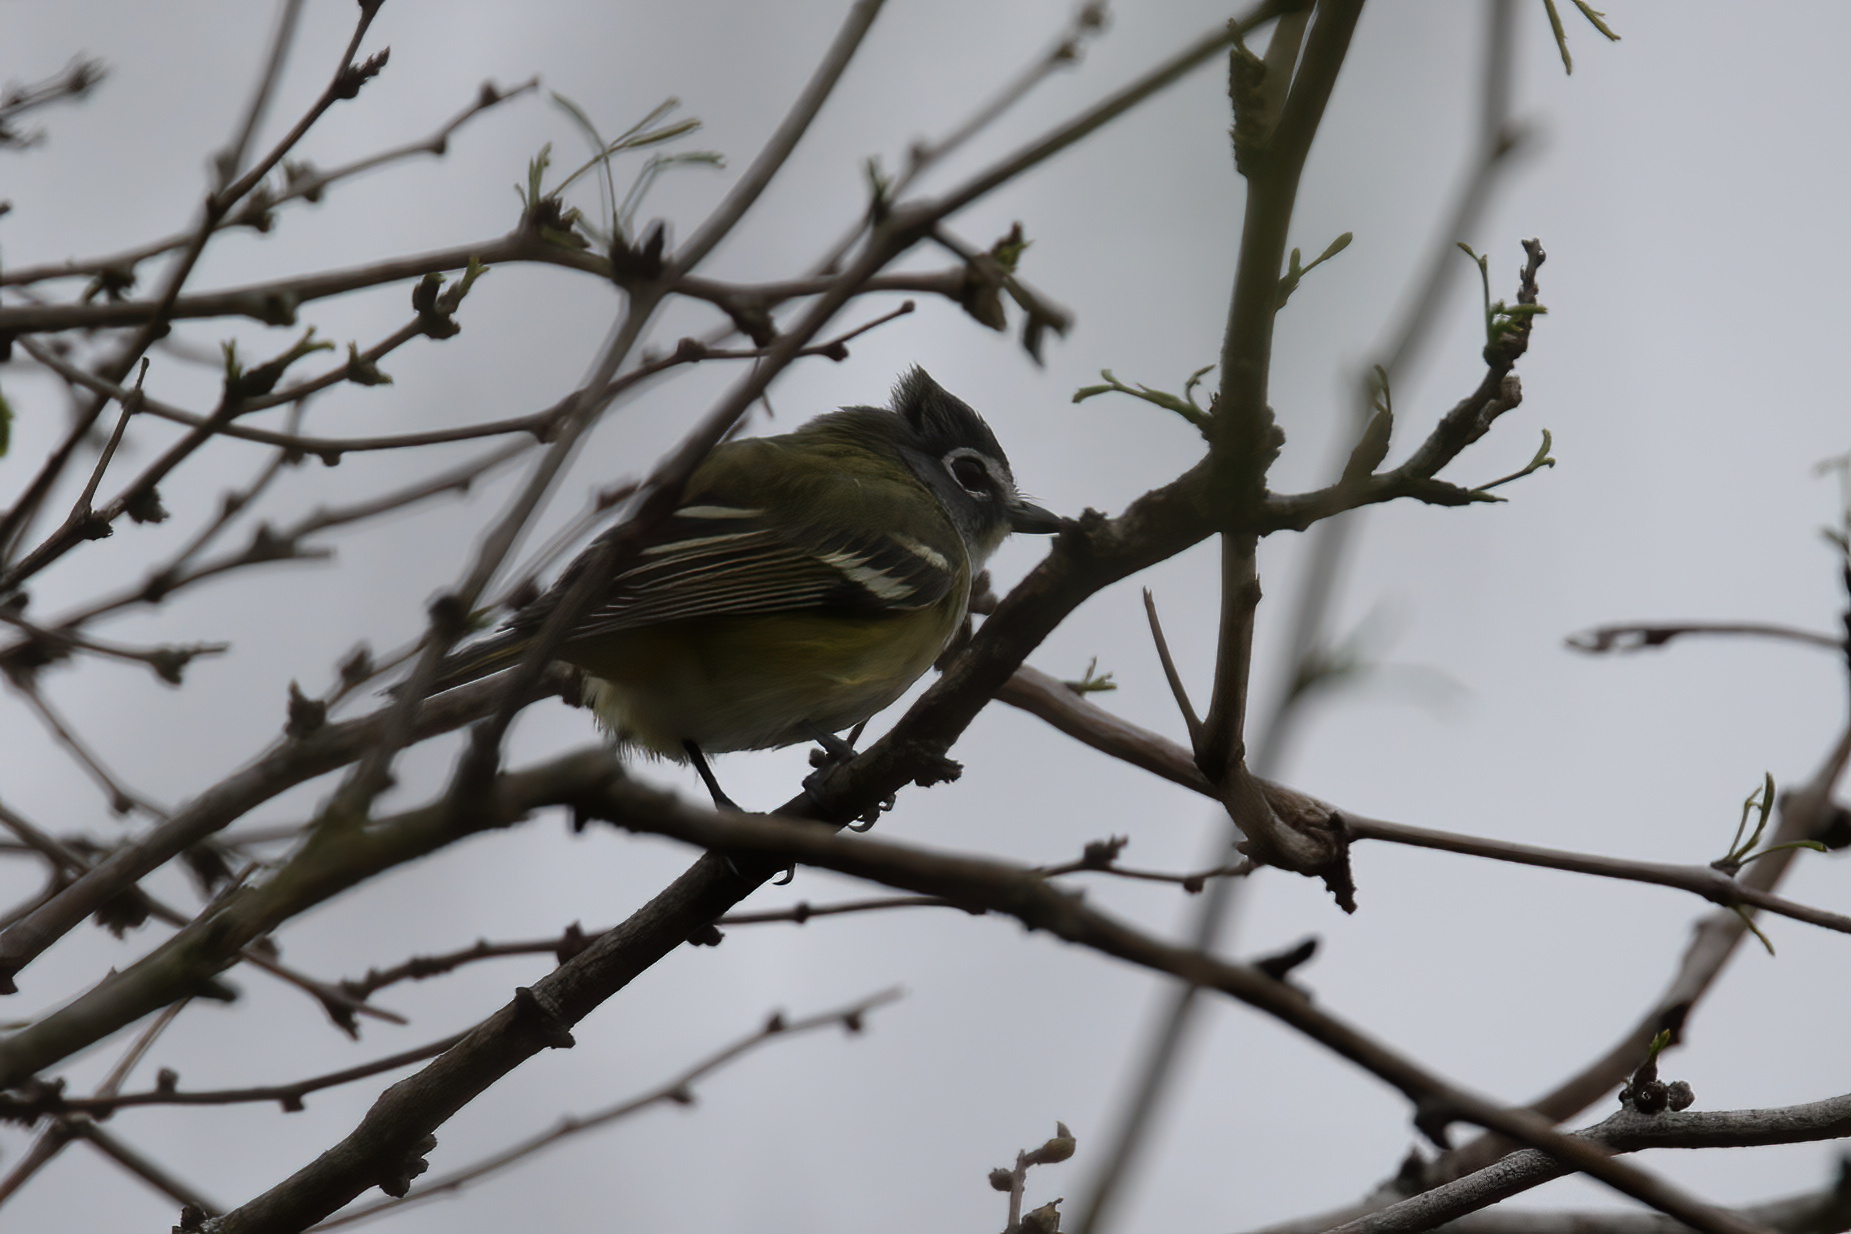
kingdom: Animalia
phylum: Chordata
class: Aves
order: Passeriformes
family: Vireonidae
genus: Vireo
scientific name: Vireo solitarius
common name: Blue-headed vireo
